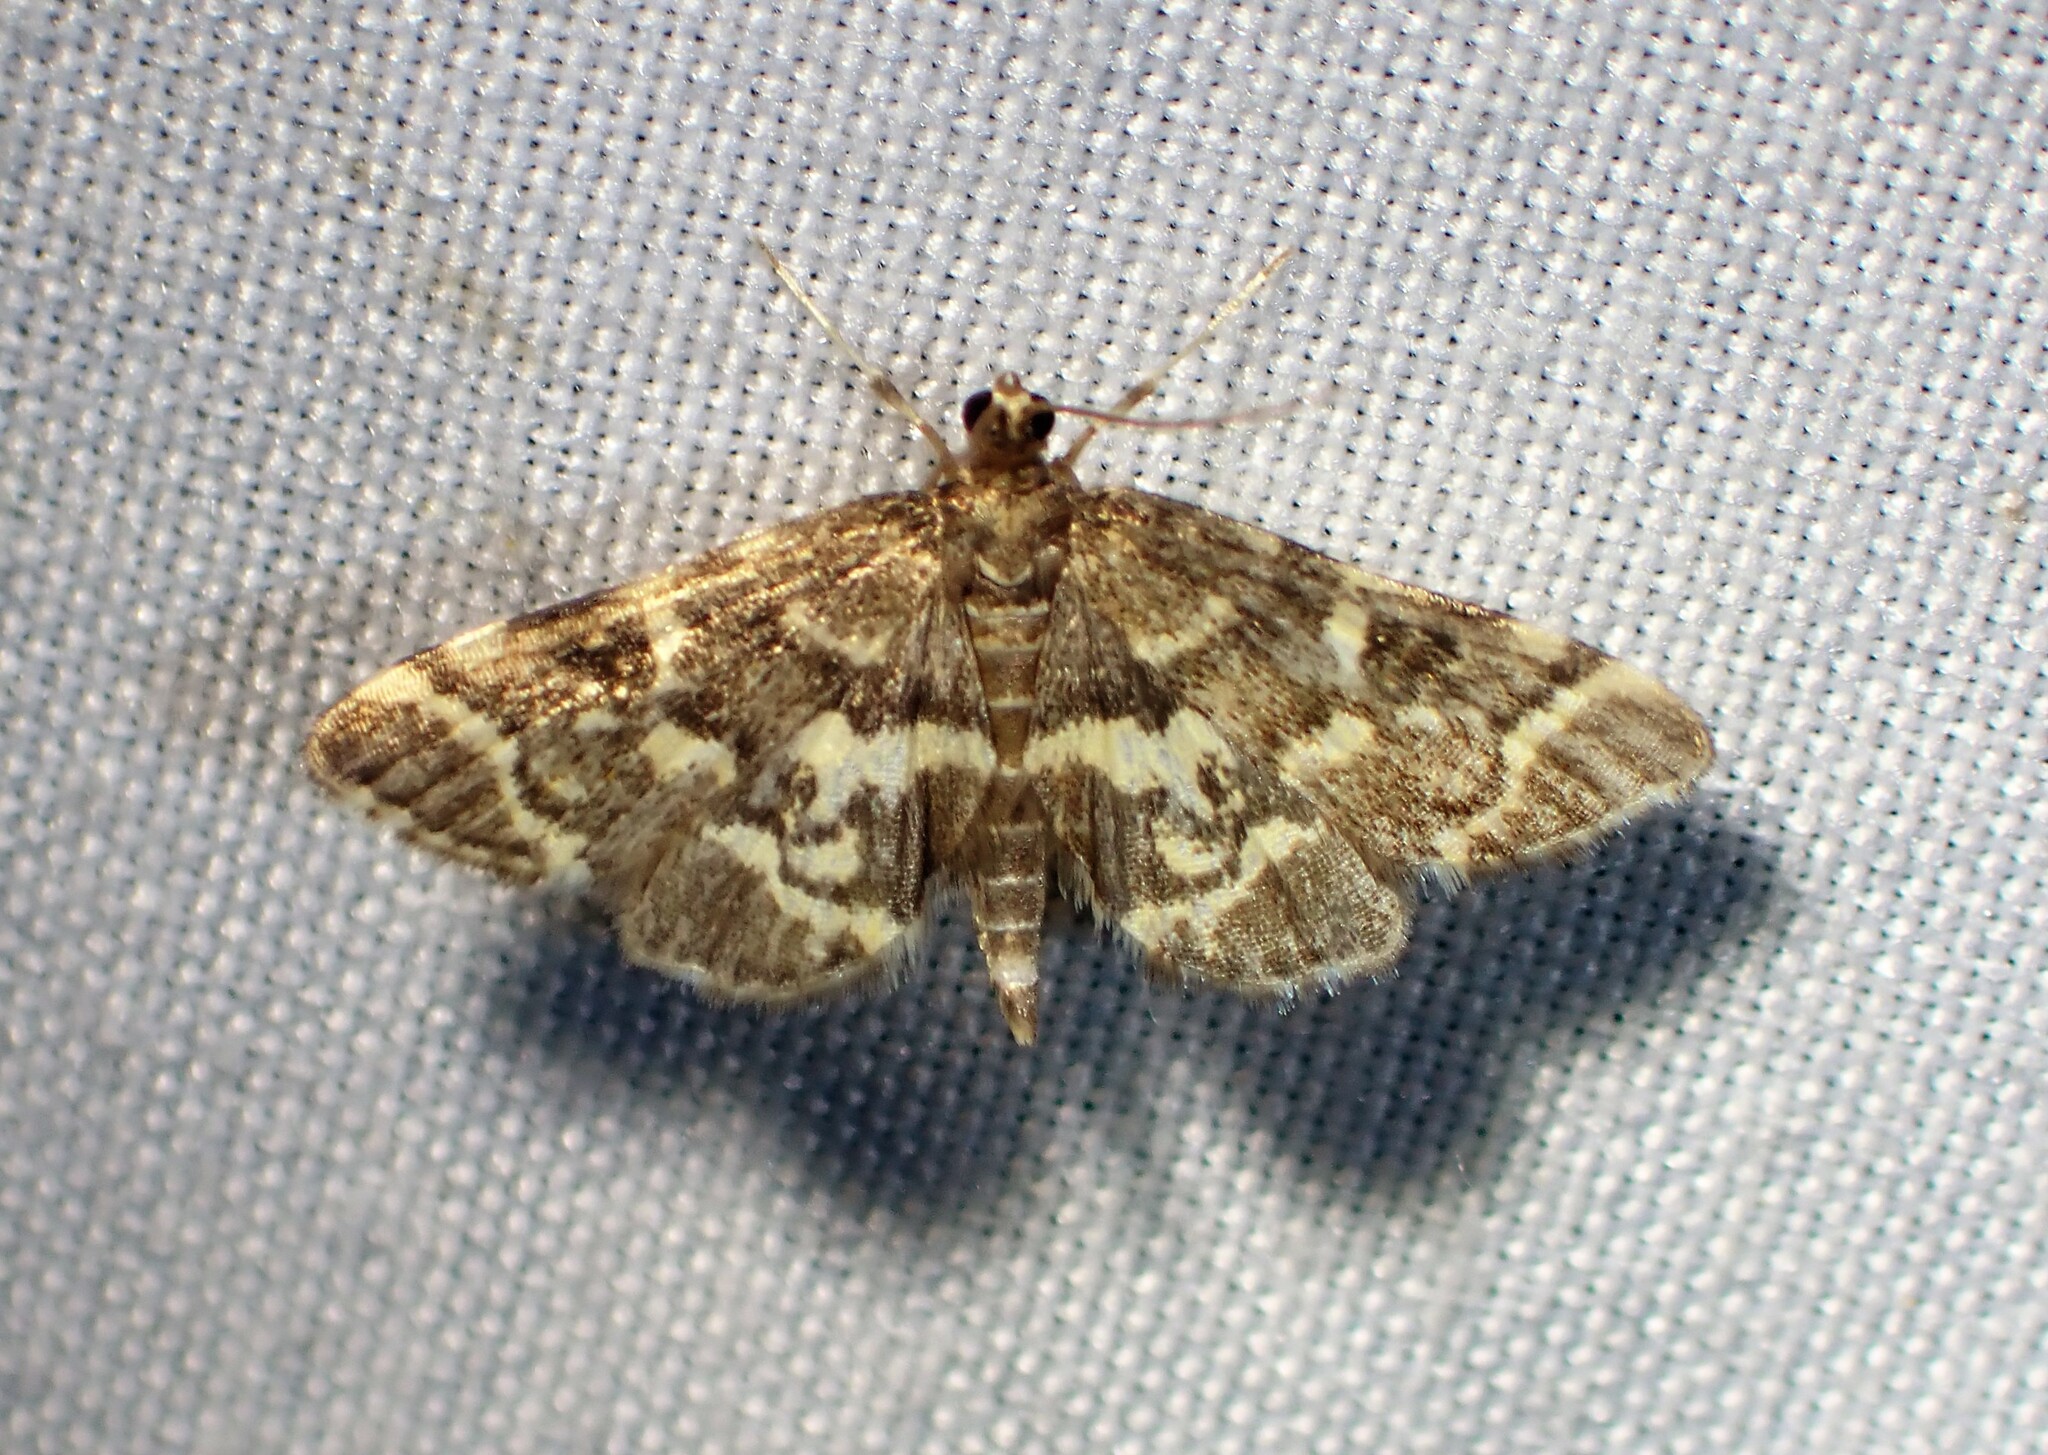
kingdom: Animalia
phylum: Arthropoda
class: Insecta
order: Lepidoptera
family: Crambidae
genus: Anageshna
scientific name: Anageshna primordialis
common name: Yellow-spotted webworm moth
